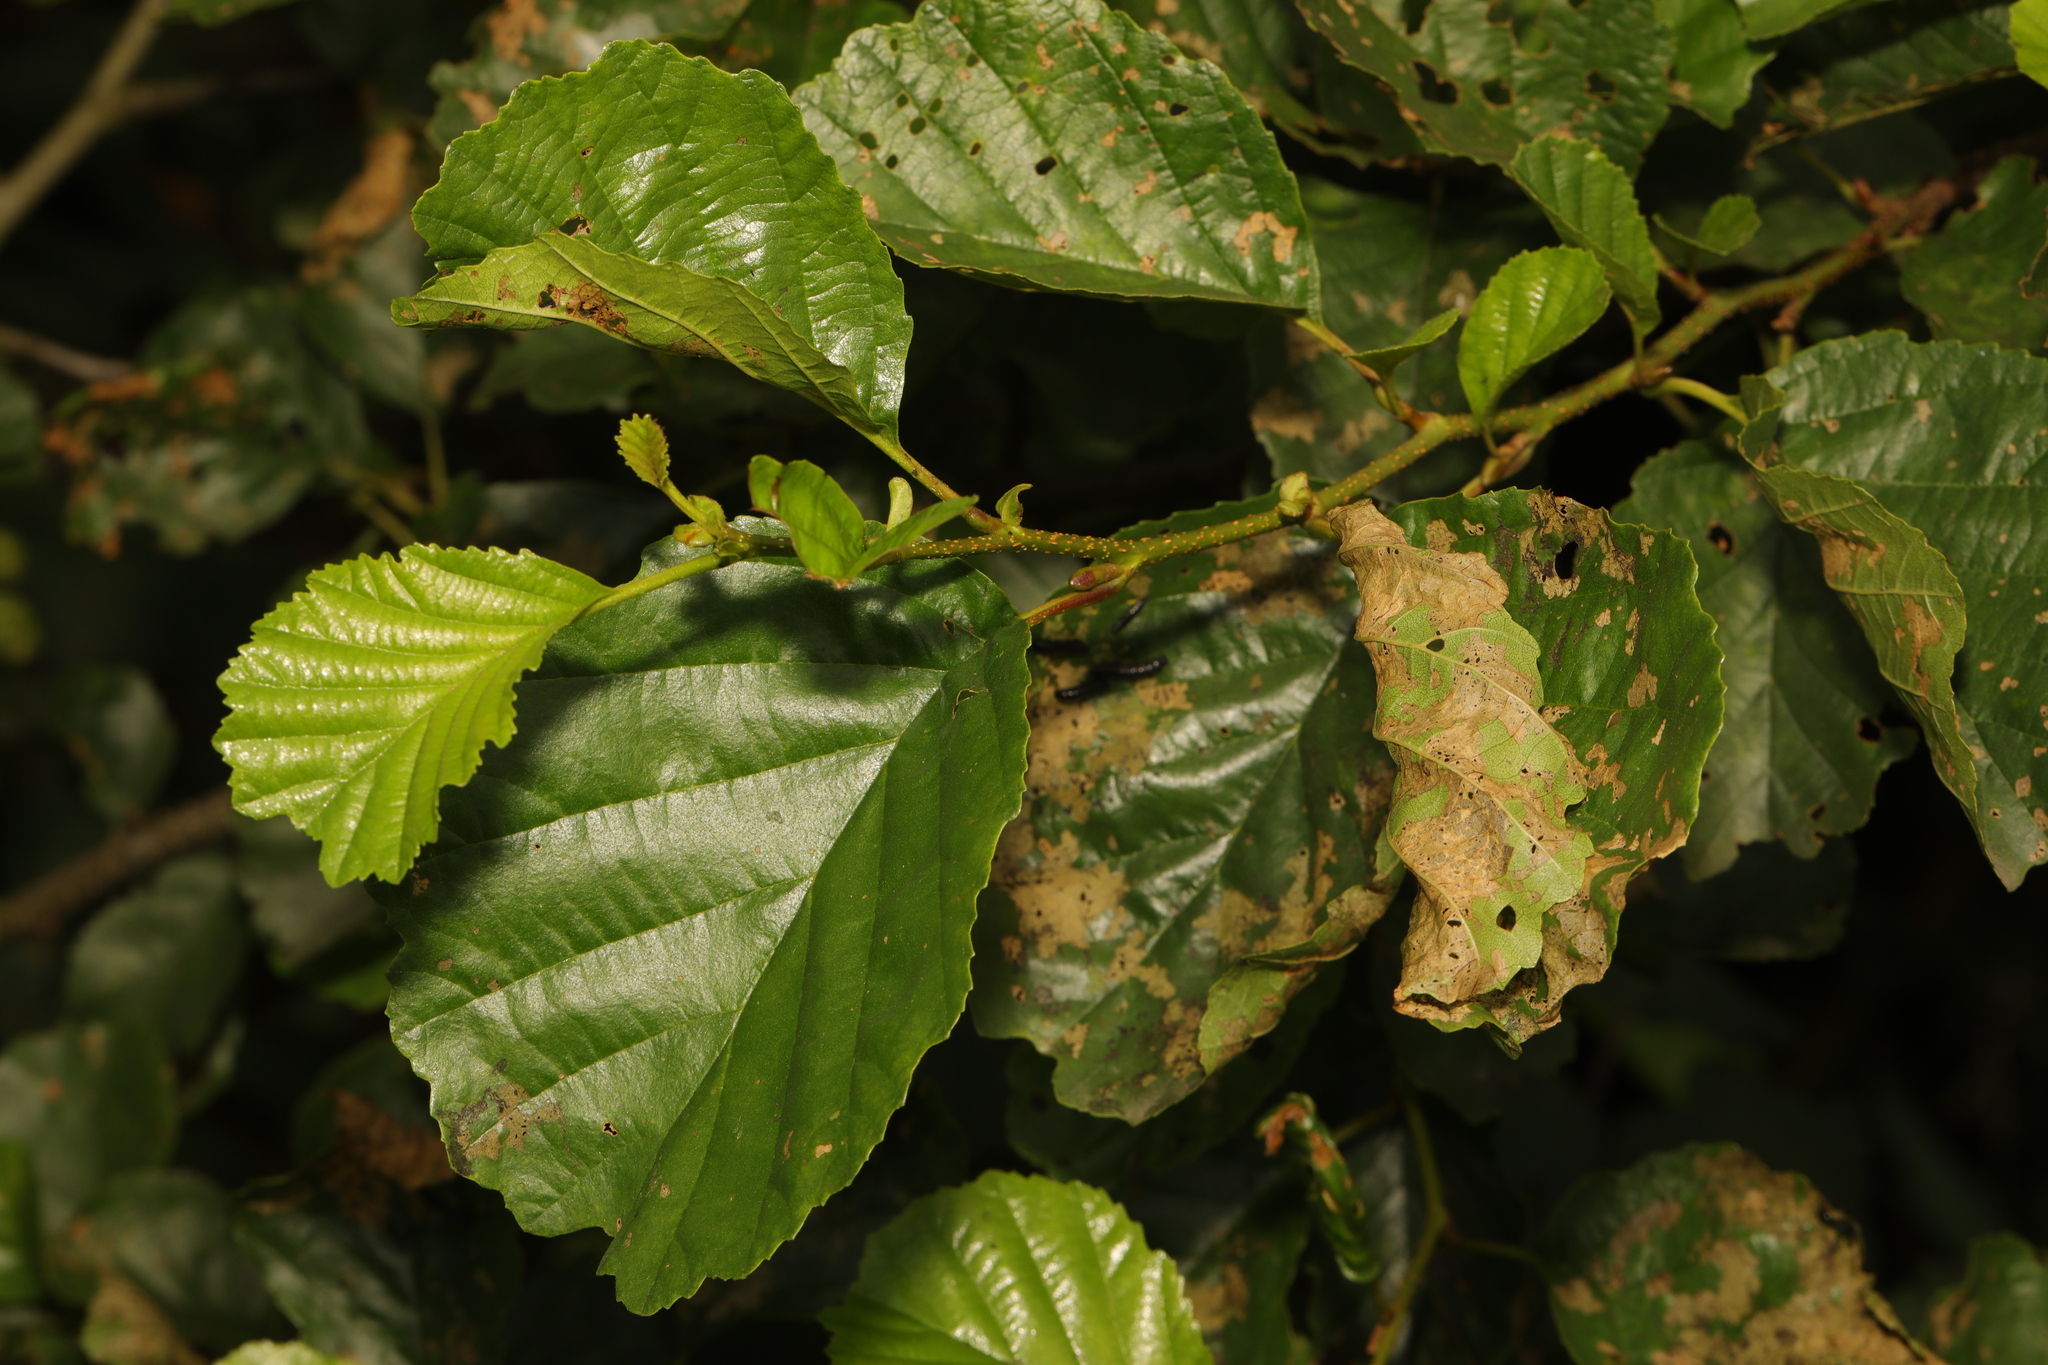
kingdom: Plantae
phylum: Tracheophyta
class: Magnoliopsida
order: Fagales
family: Betulaceae
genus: Alnus
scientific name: Alnus glutinosa
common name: Black alder
